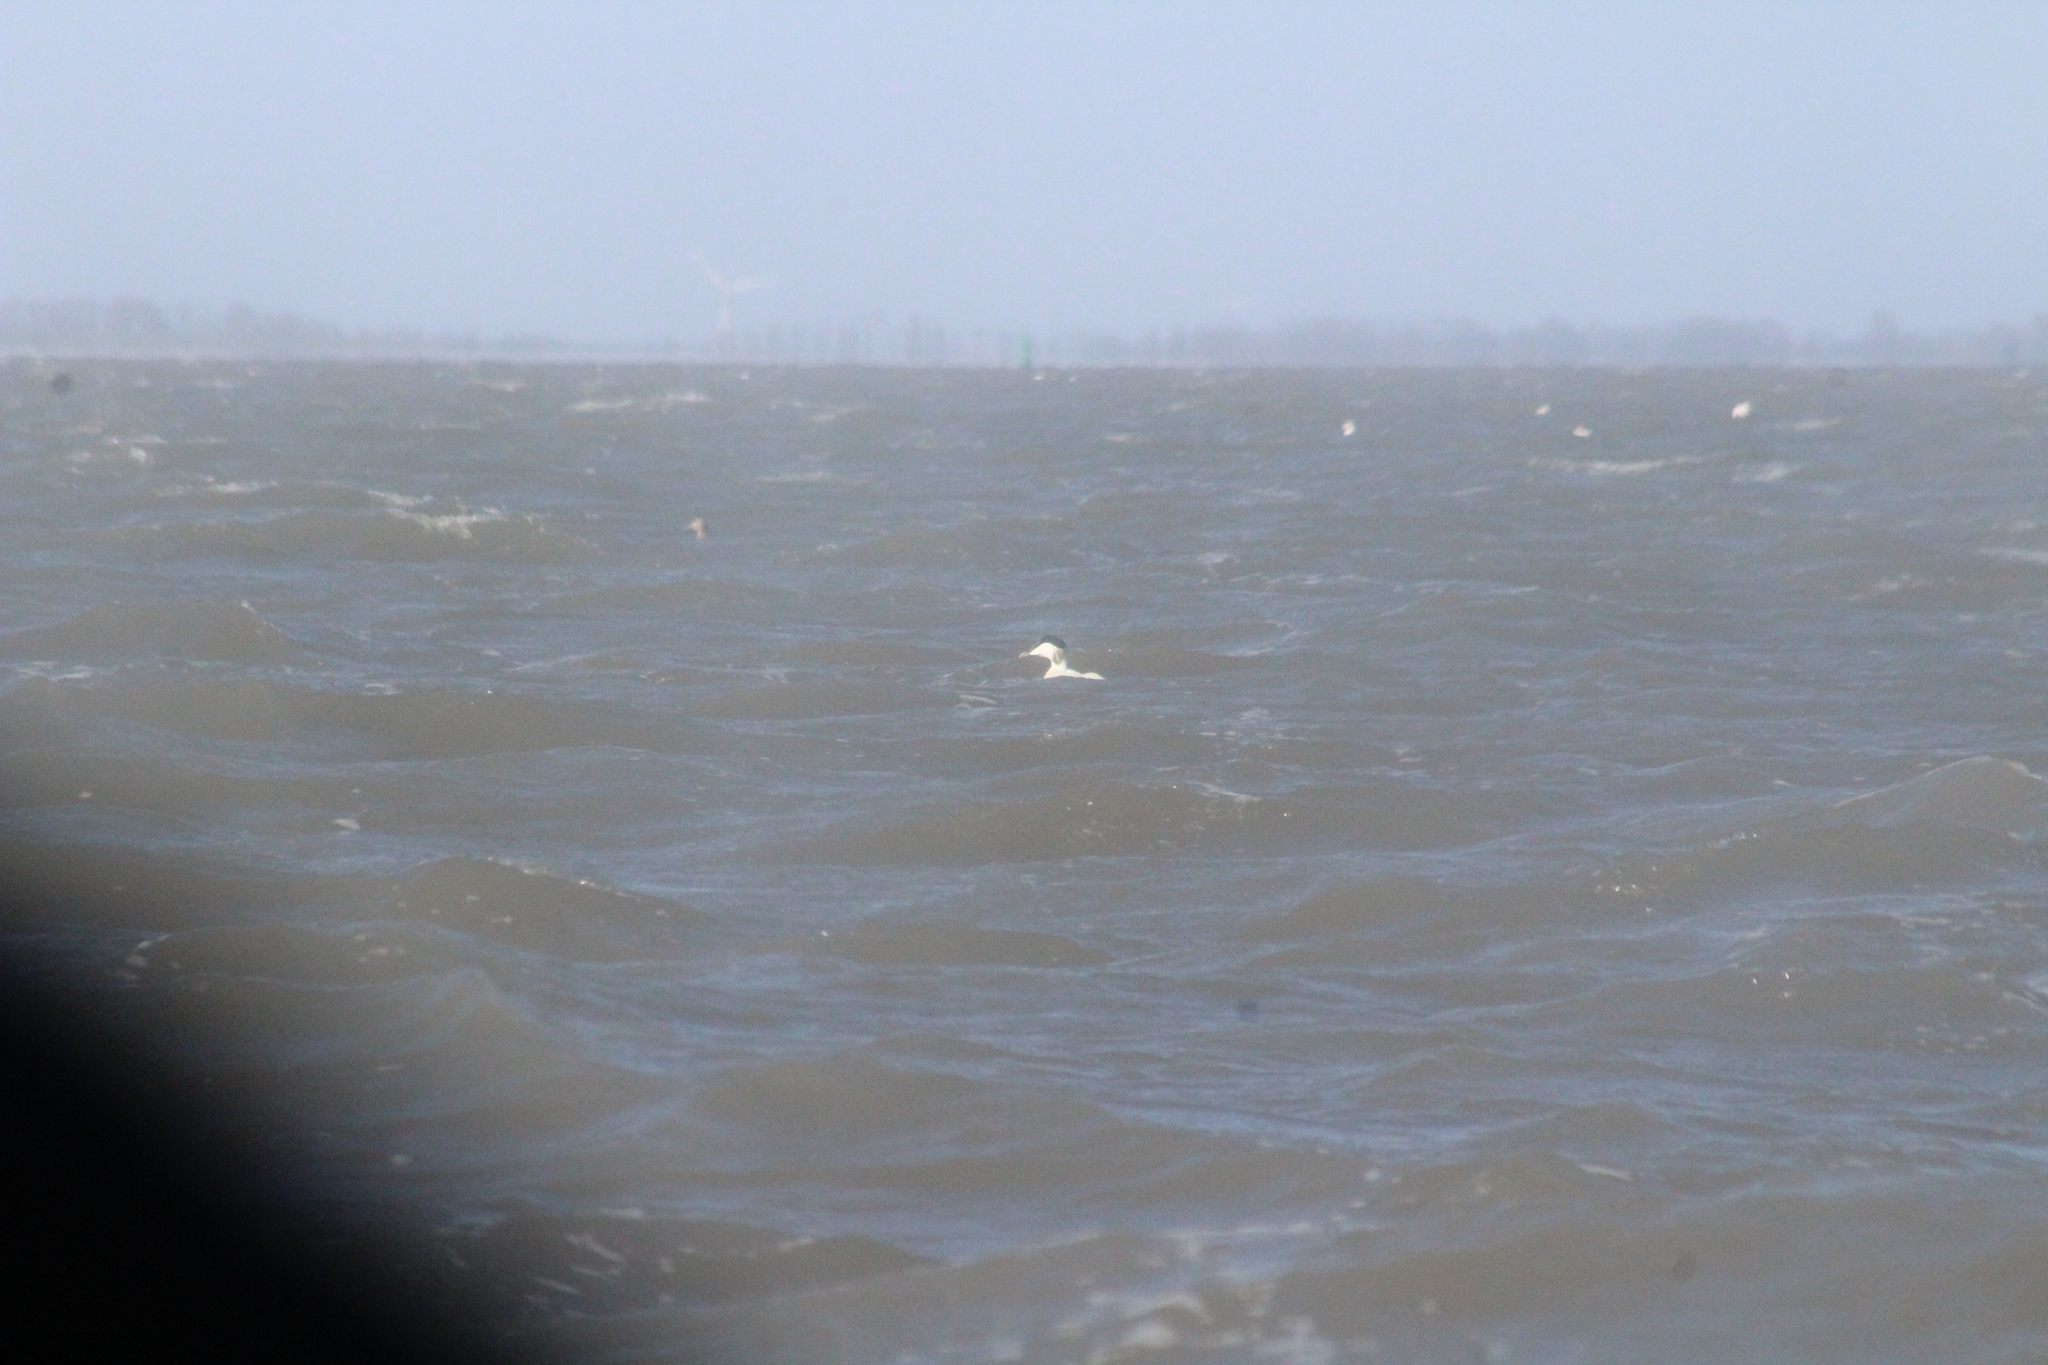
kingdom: Animalia
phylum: Chordata
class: Aves
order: Anseriformes
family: Anatidae
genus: Somateria
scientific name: Somateria mollissima
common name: Common eider
